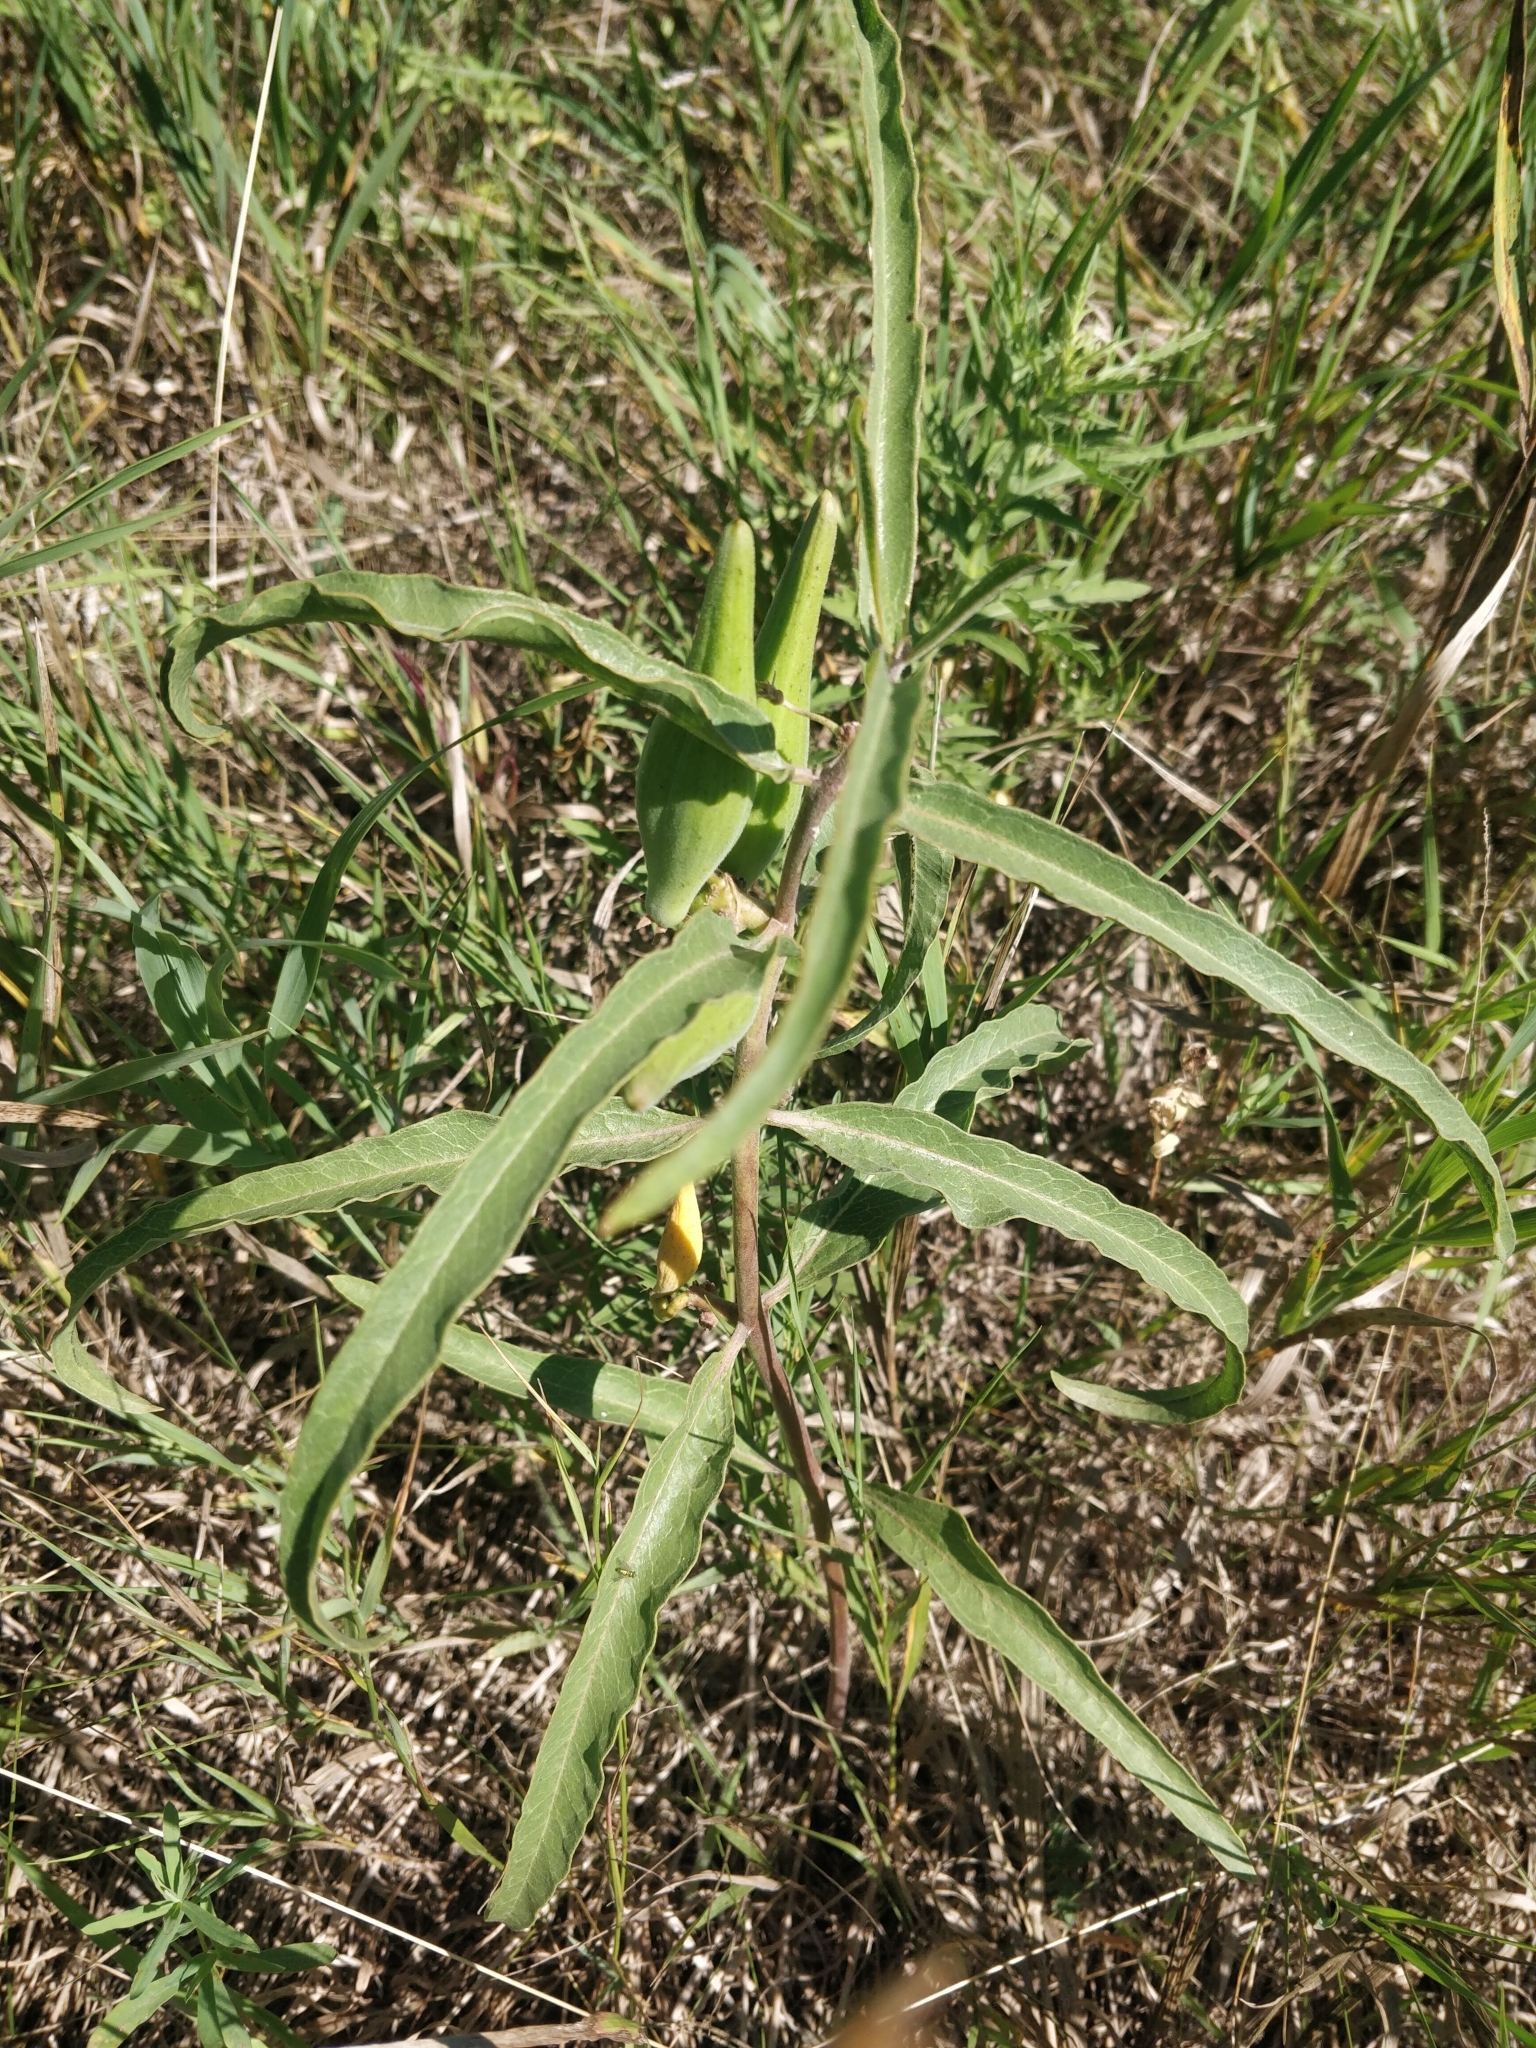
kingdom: Plantae
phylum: Tracheophyta
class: Magnoliopsida
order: Gentianales
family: Apocynaceae
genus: Asclepias
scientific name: Asclepias viridiflora
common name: Green comet milkweed
